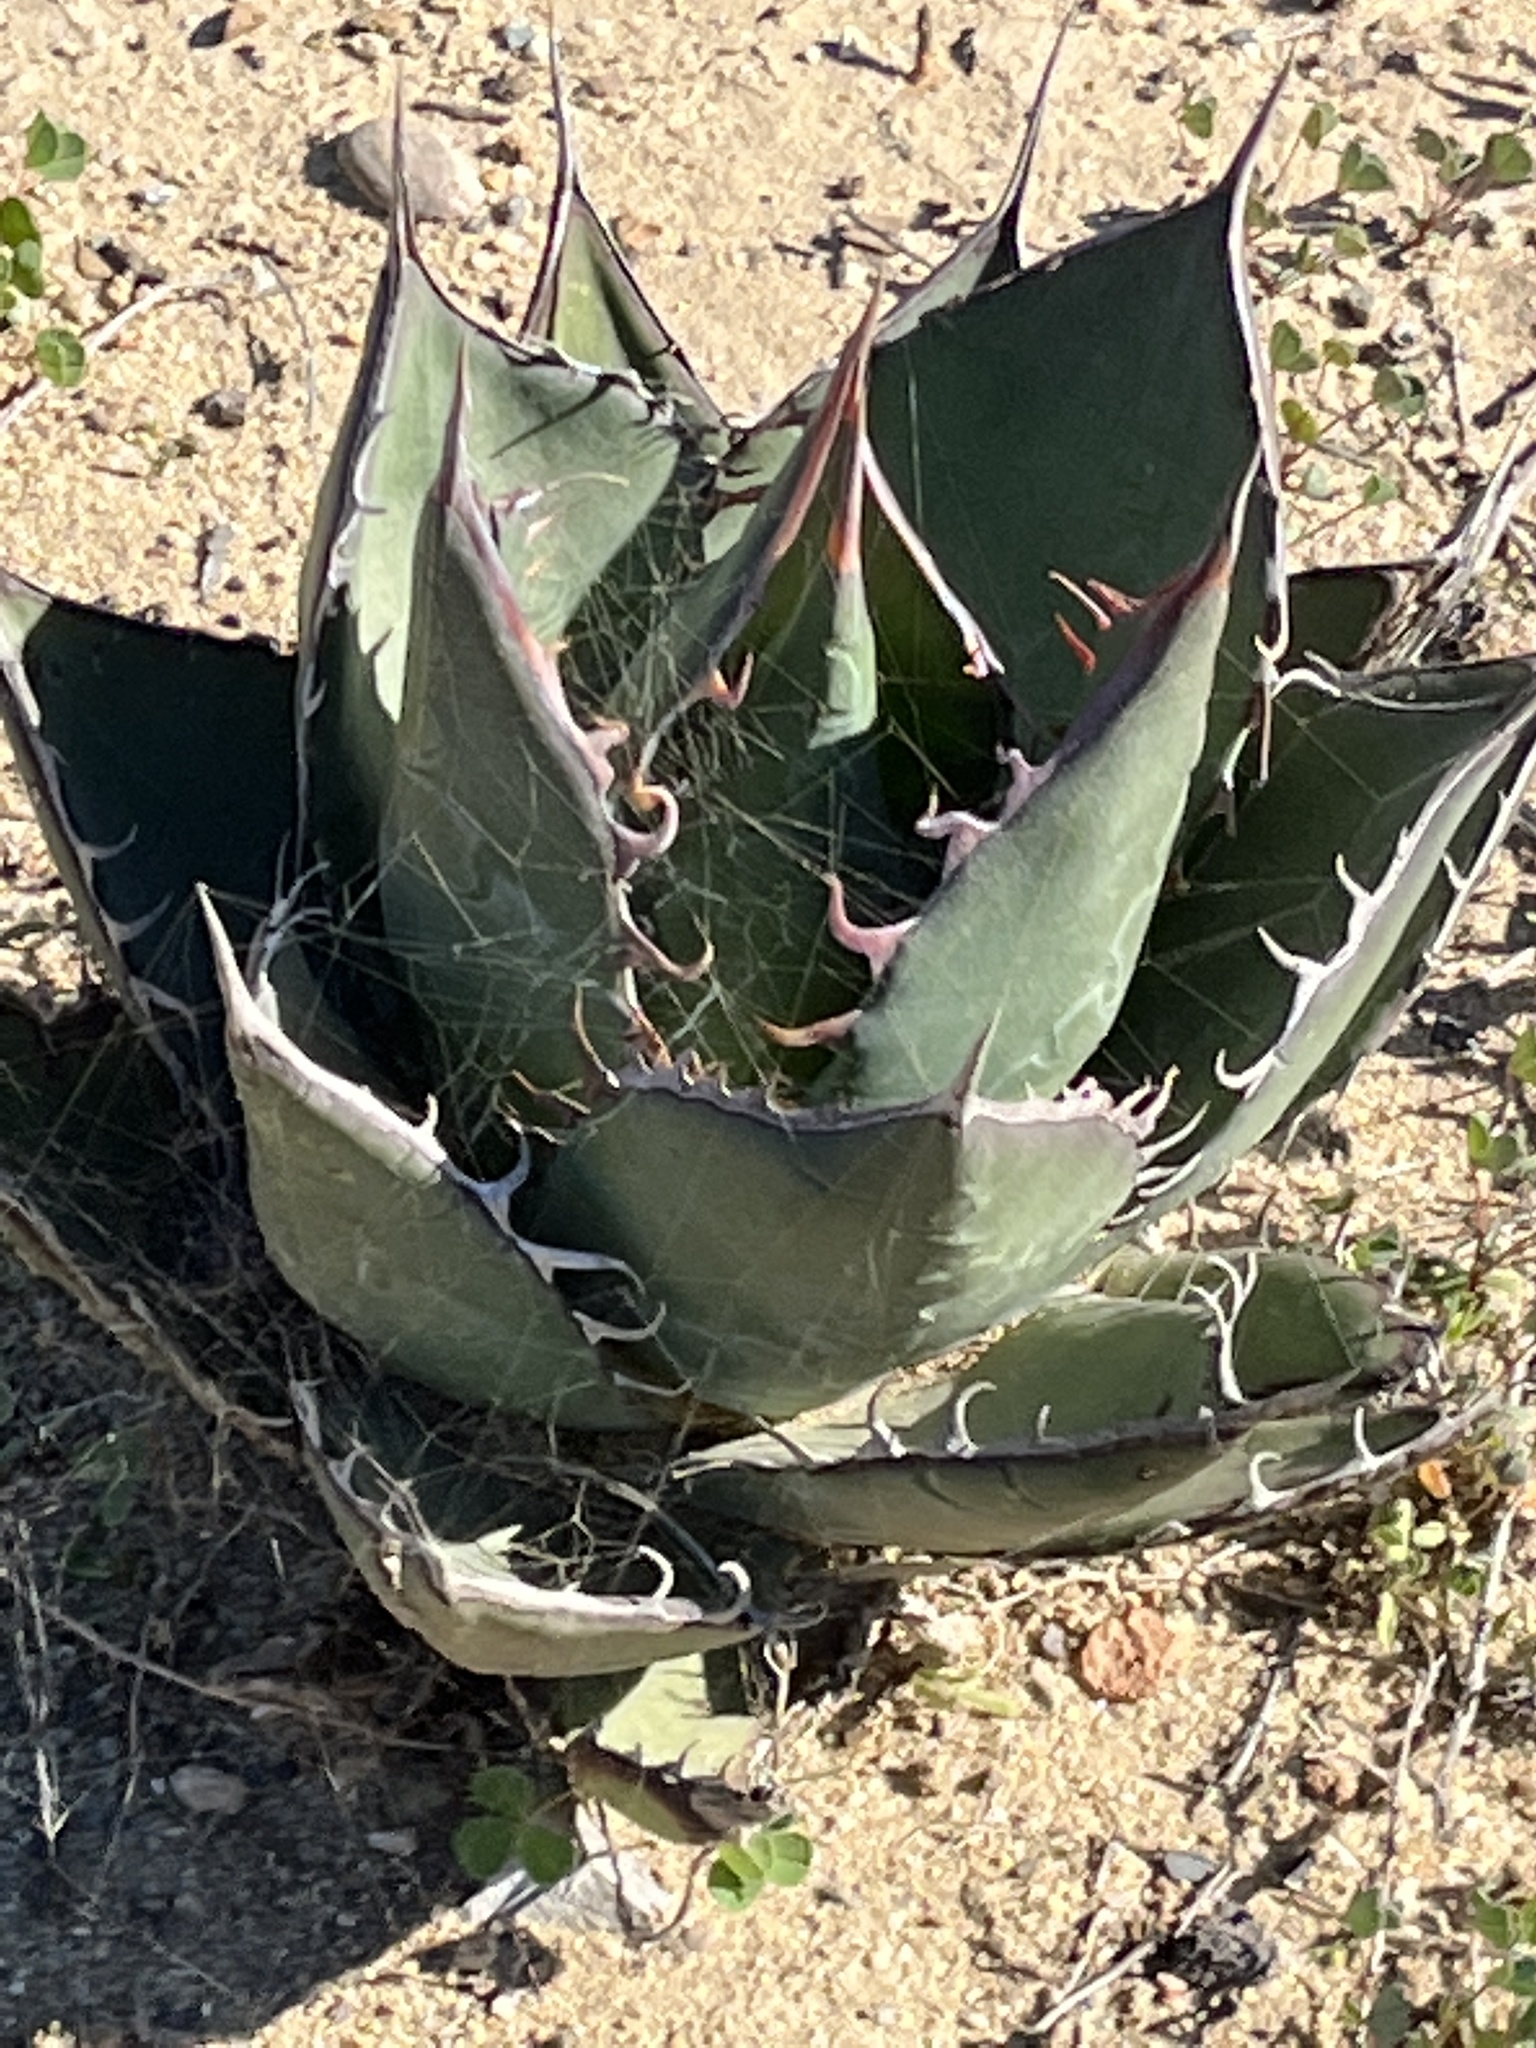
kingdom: Plantae
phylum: Tracheophyta
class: Liliopsida
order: Asparagales
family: Asparagaceae
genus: Agave
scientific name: Agave shawii
